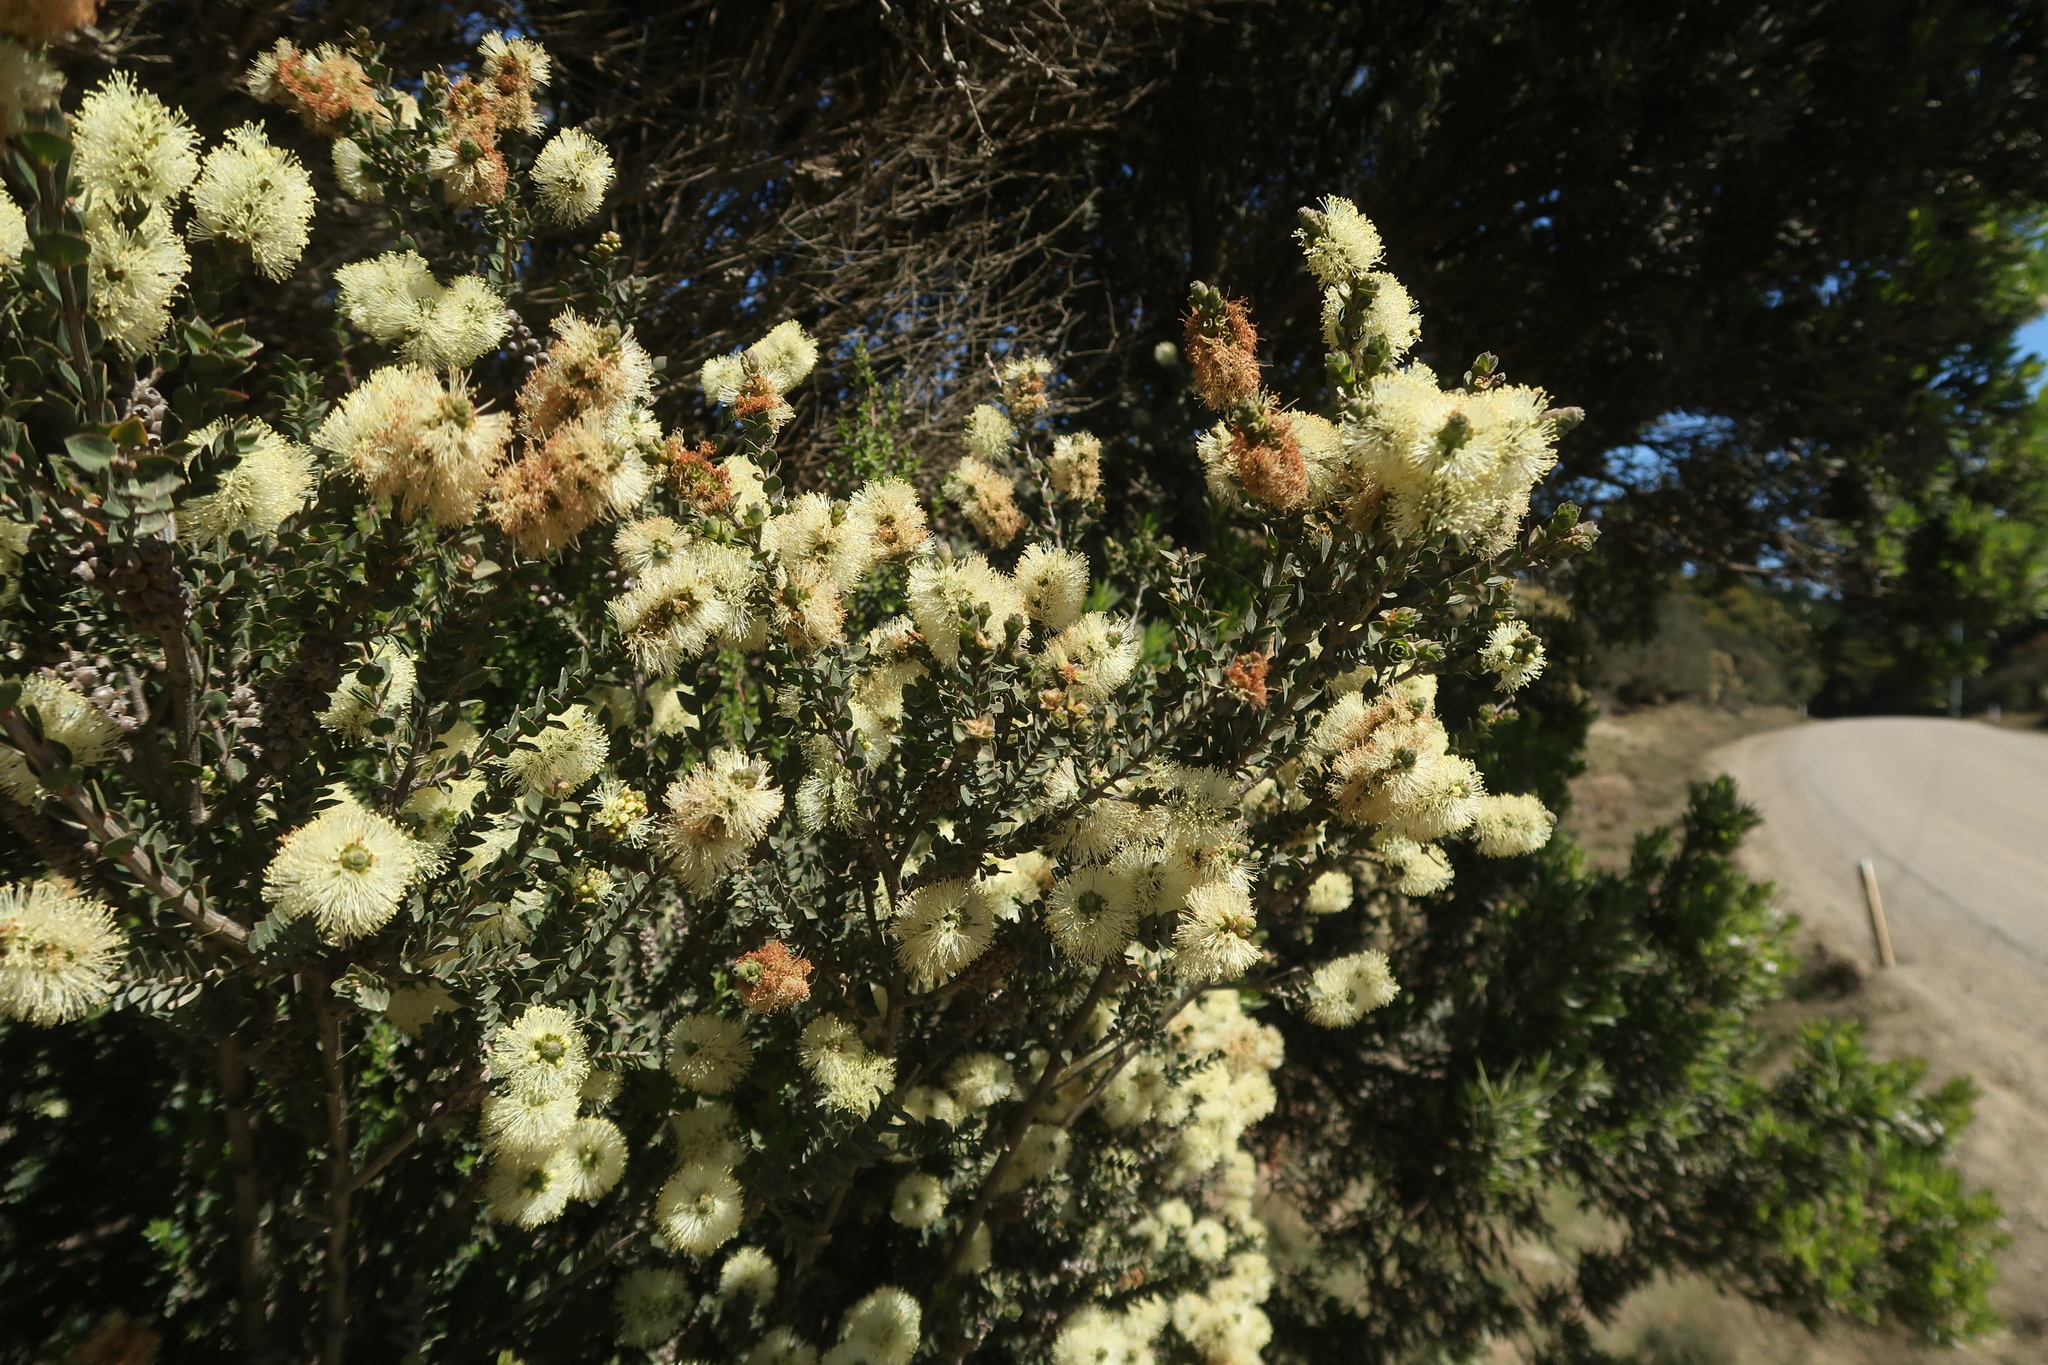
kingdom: Plantae
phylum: Tracheophyta
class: Magnoliopsida
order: Myrtales
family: Myrtaceae
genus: Melaleuca
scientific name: Melaleuca squarrosa
